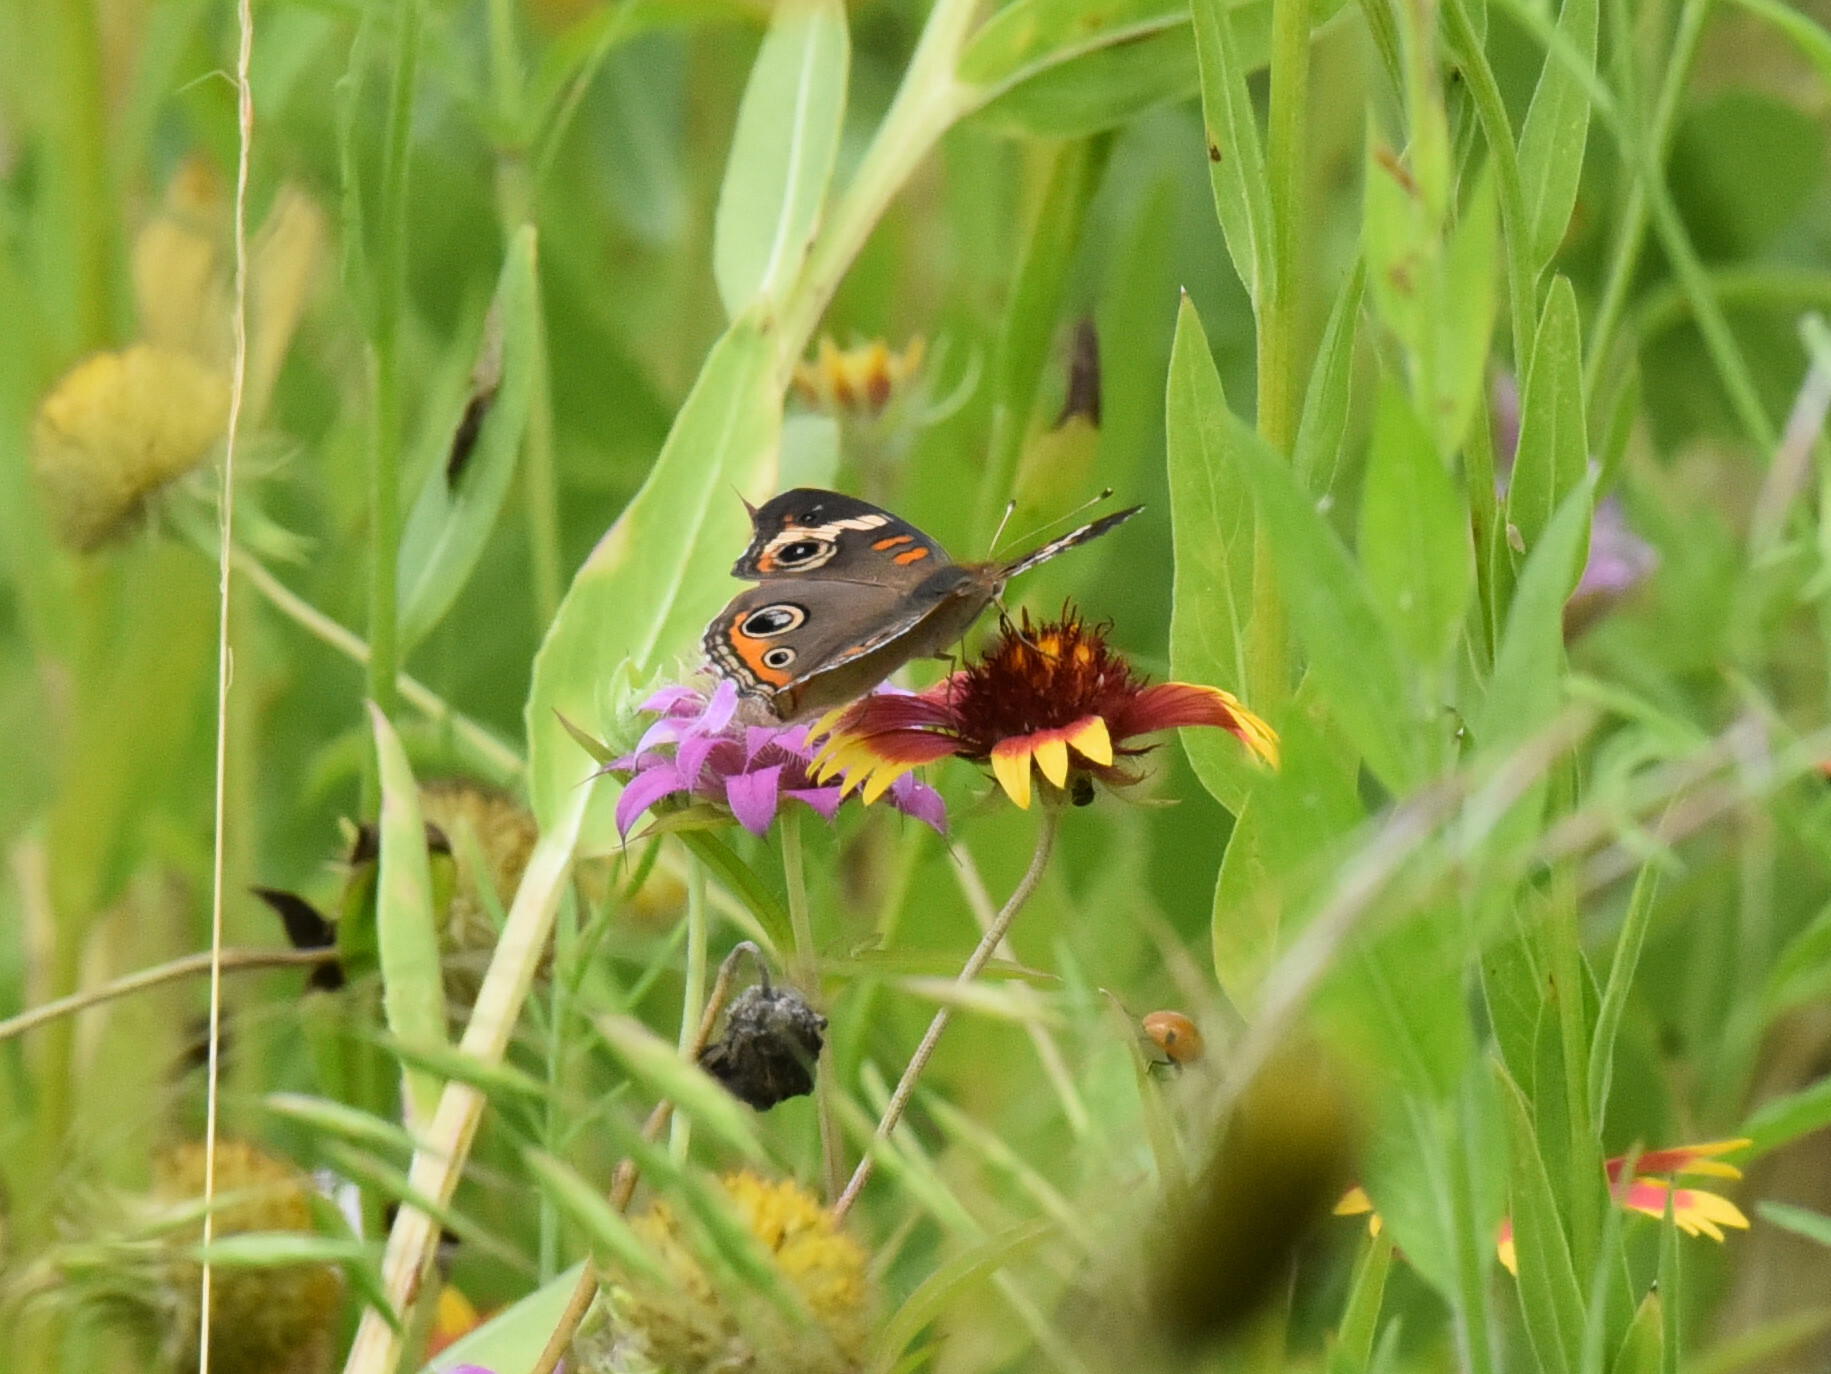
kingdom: Animalia
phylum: Arthropoda
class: Insecta
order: Lepidoptera
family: Nymphalidae
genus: Junonia
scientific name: Junonia coenia
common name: Common buckeye
